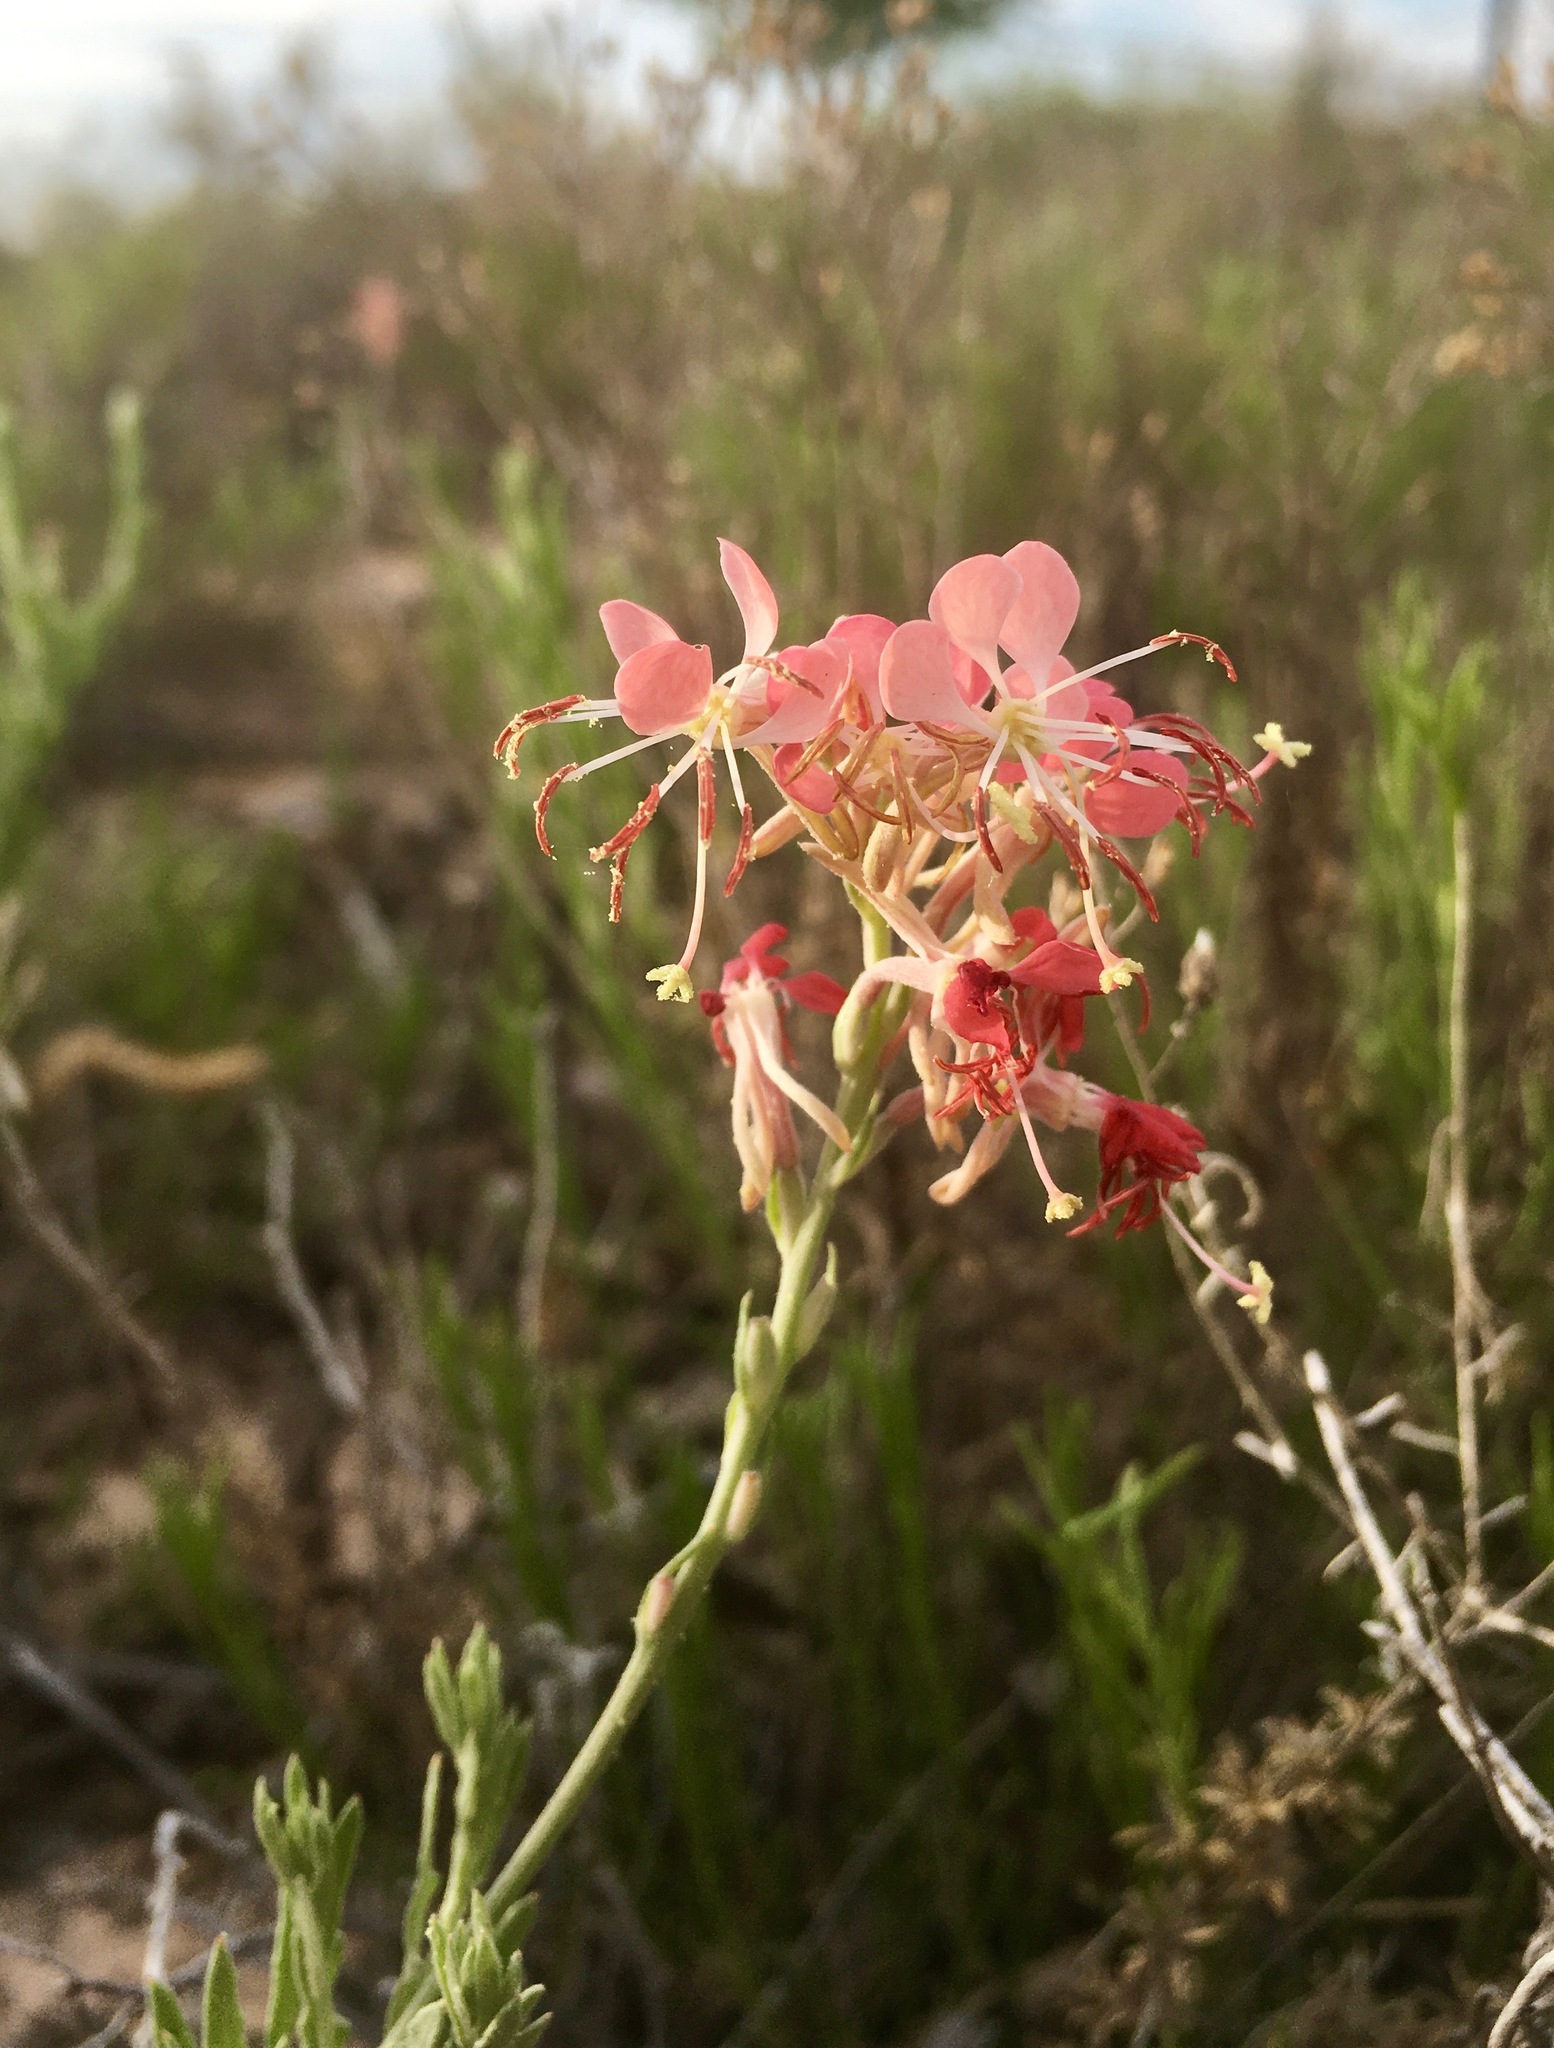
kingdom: Plantae
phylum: Tracheophyta
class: Magnoliopsida
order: Myrtales
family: Onagraceae
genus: Oenothera
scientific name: Oenothera suffrutescens
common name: Scarlet beeblossom
